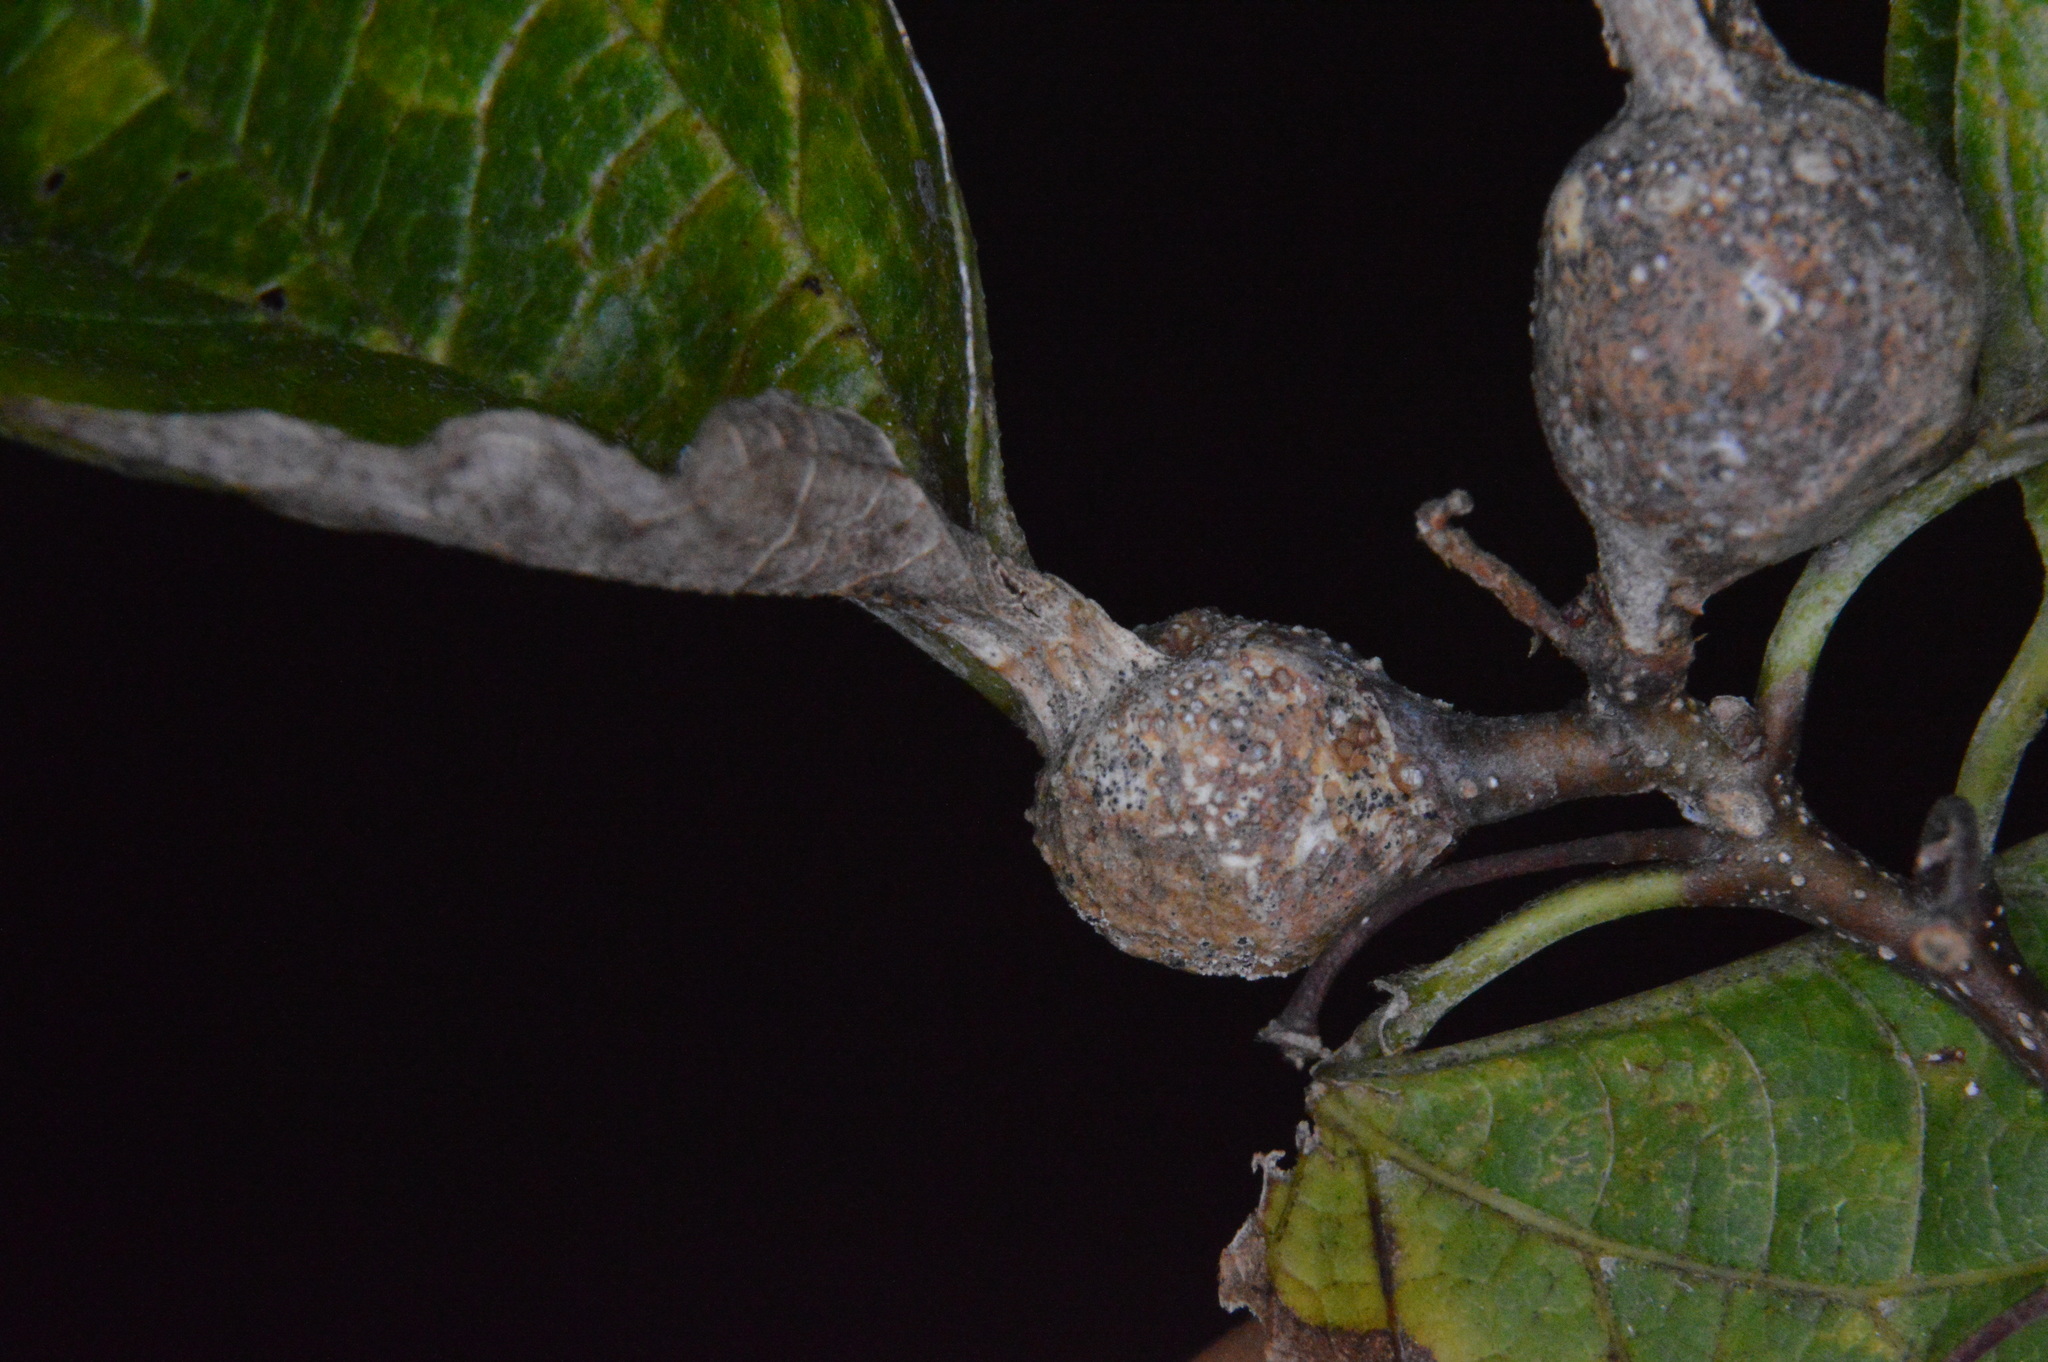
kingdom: Animalia
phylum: Arthropoda
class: Insecta
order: Hemiptera
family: Aphalaridae
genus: Pachypsylla
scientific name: Pachypsylla venusta
